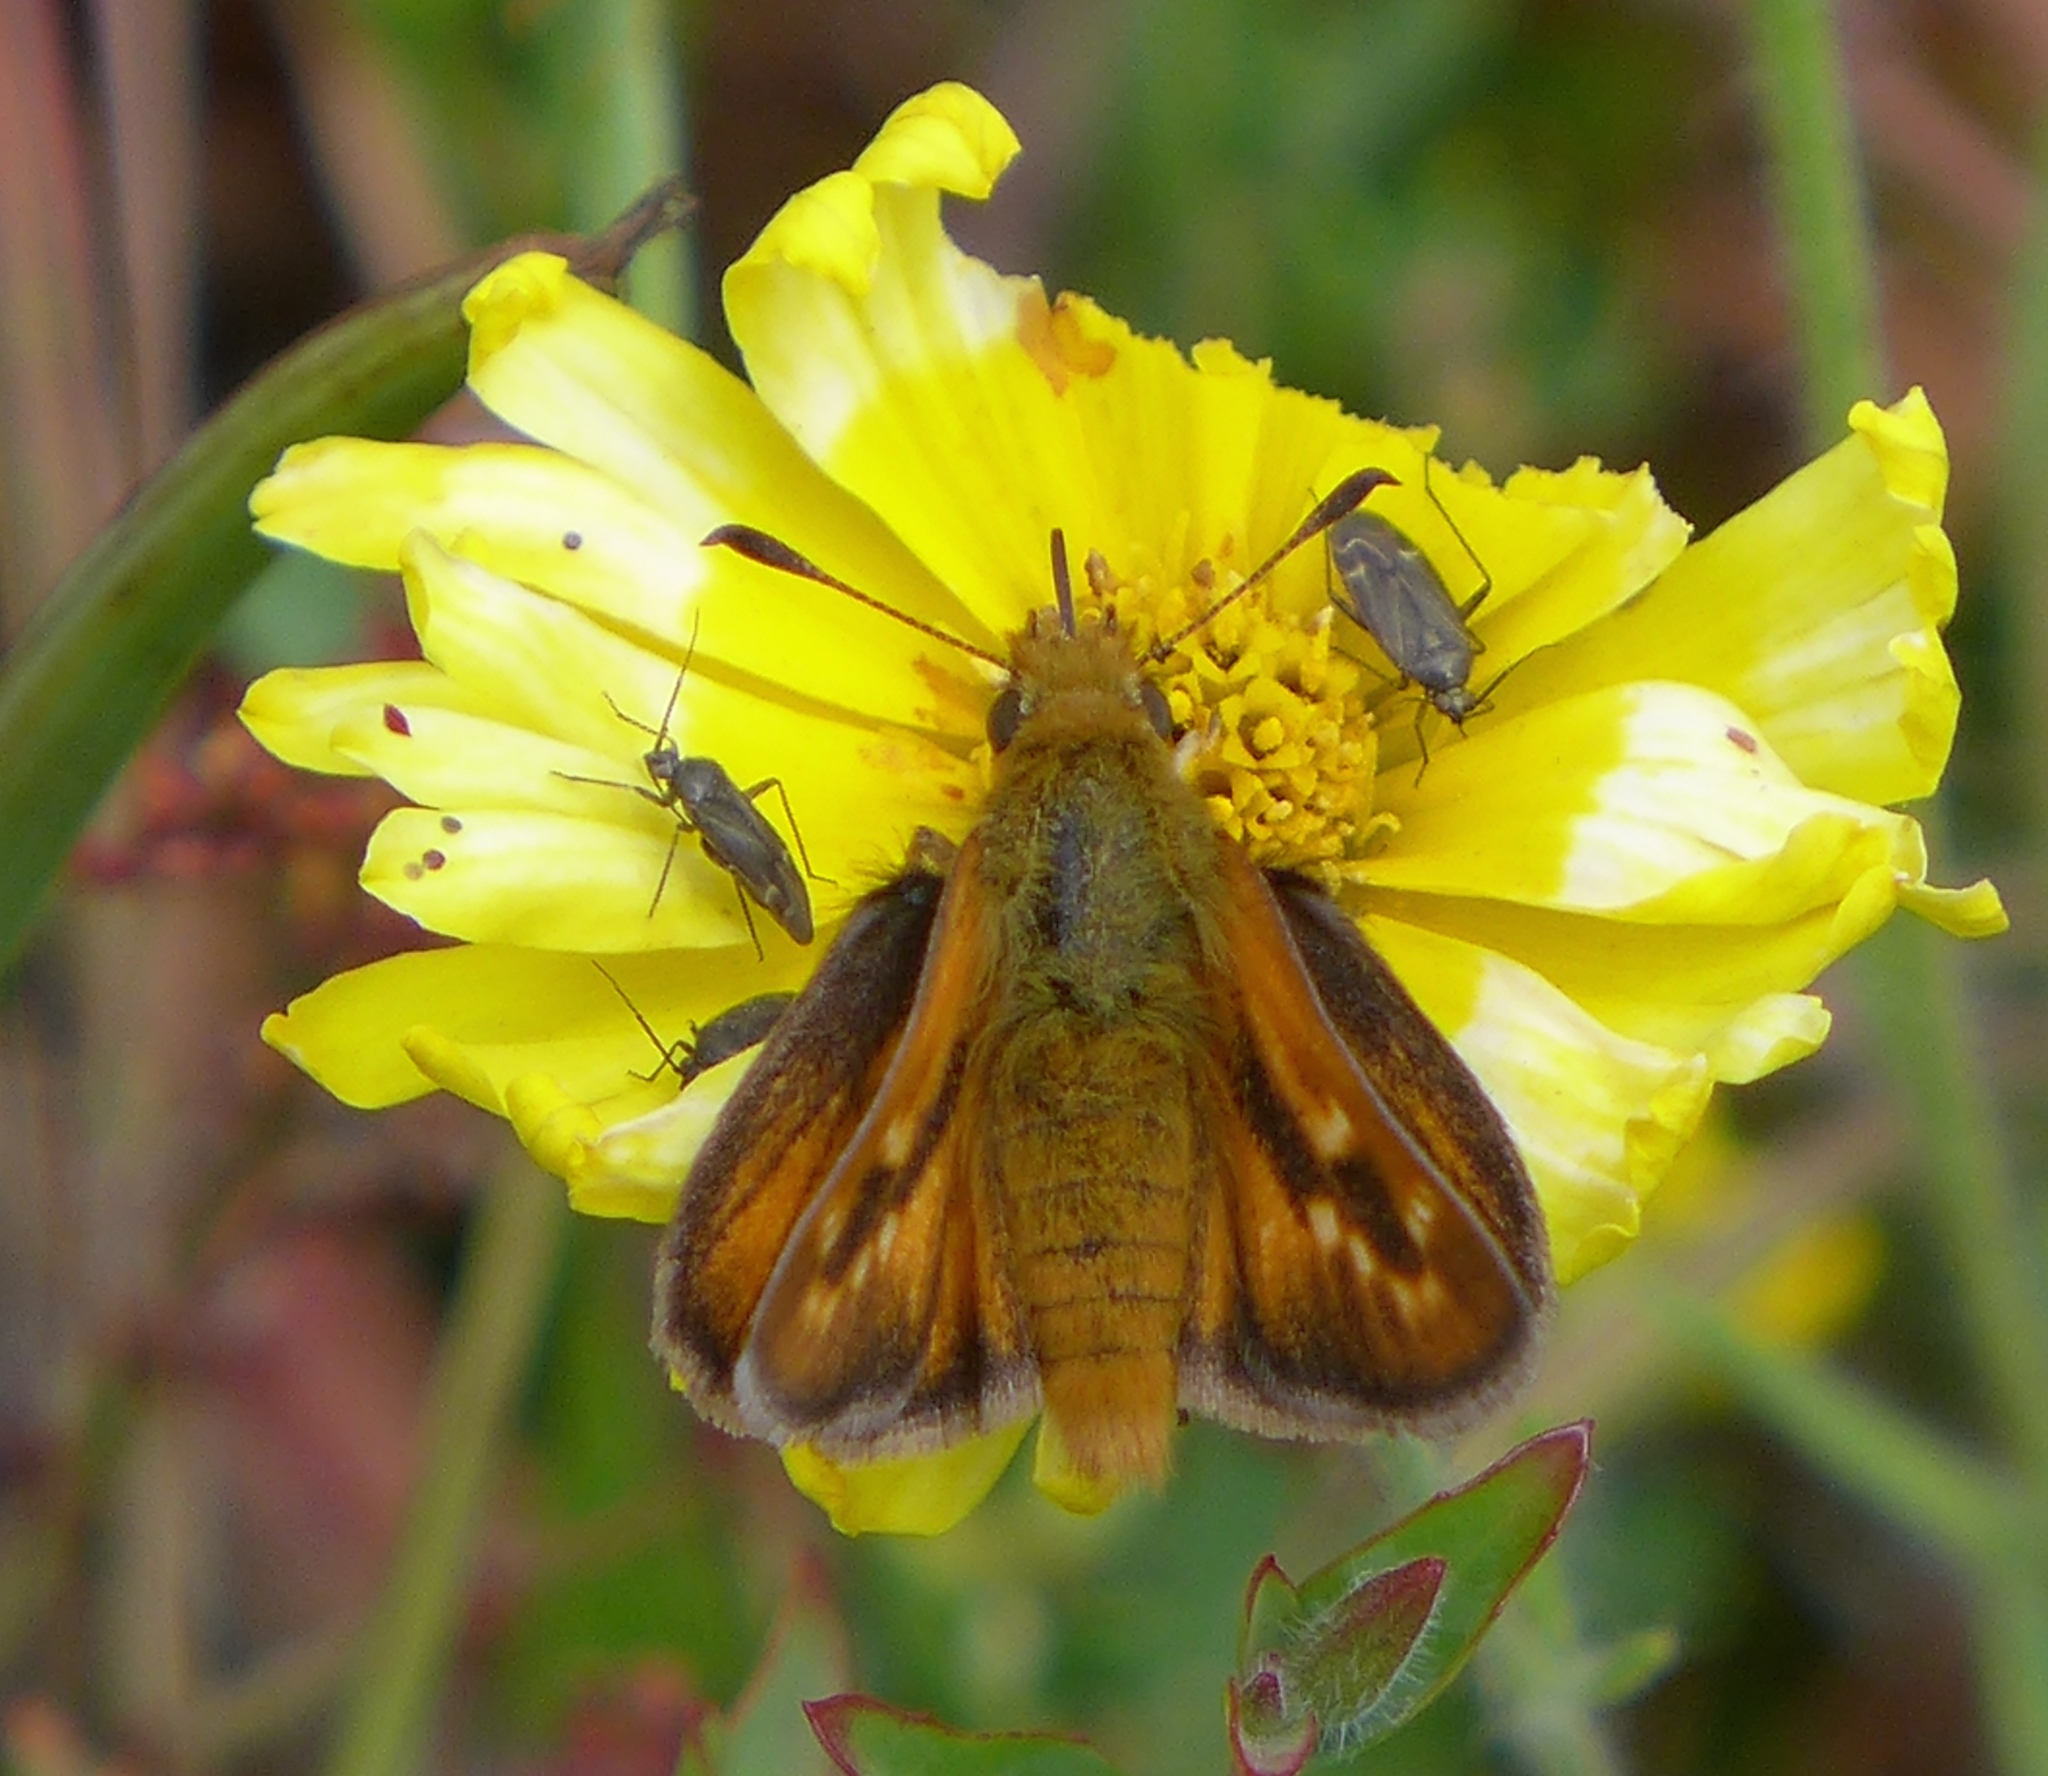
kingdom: Animalia
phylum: Arthropoda
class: Insecta
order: Lepidoptera
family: Hesperiidae
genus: Ochlodes
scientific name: Ochlodes agricola
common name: Rural skipper
